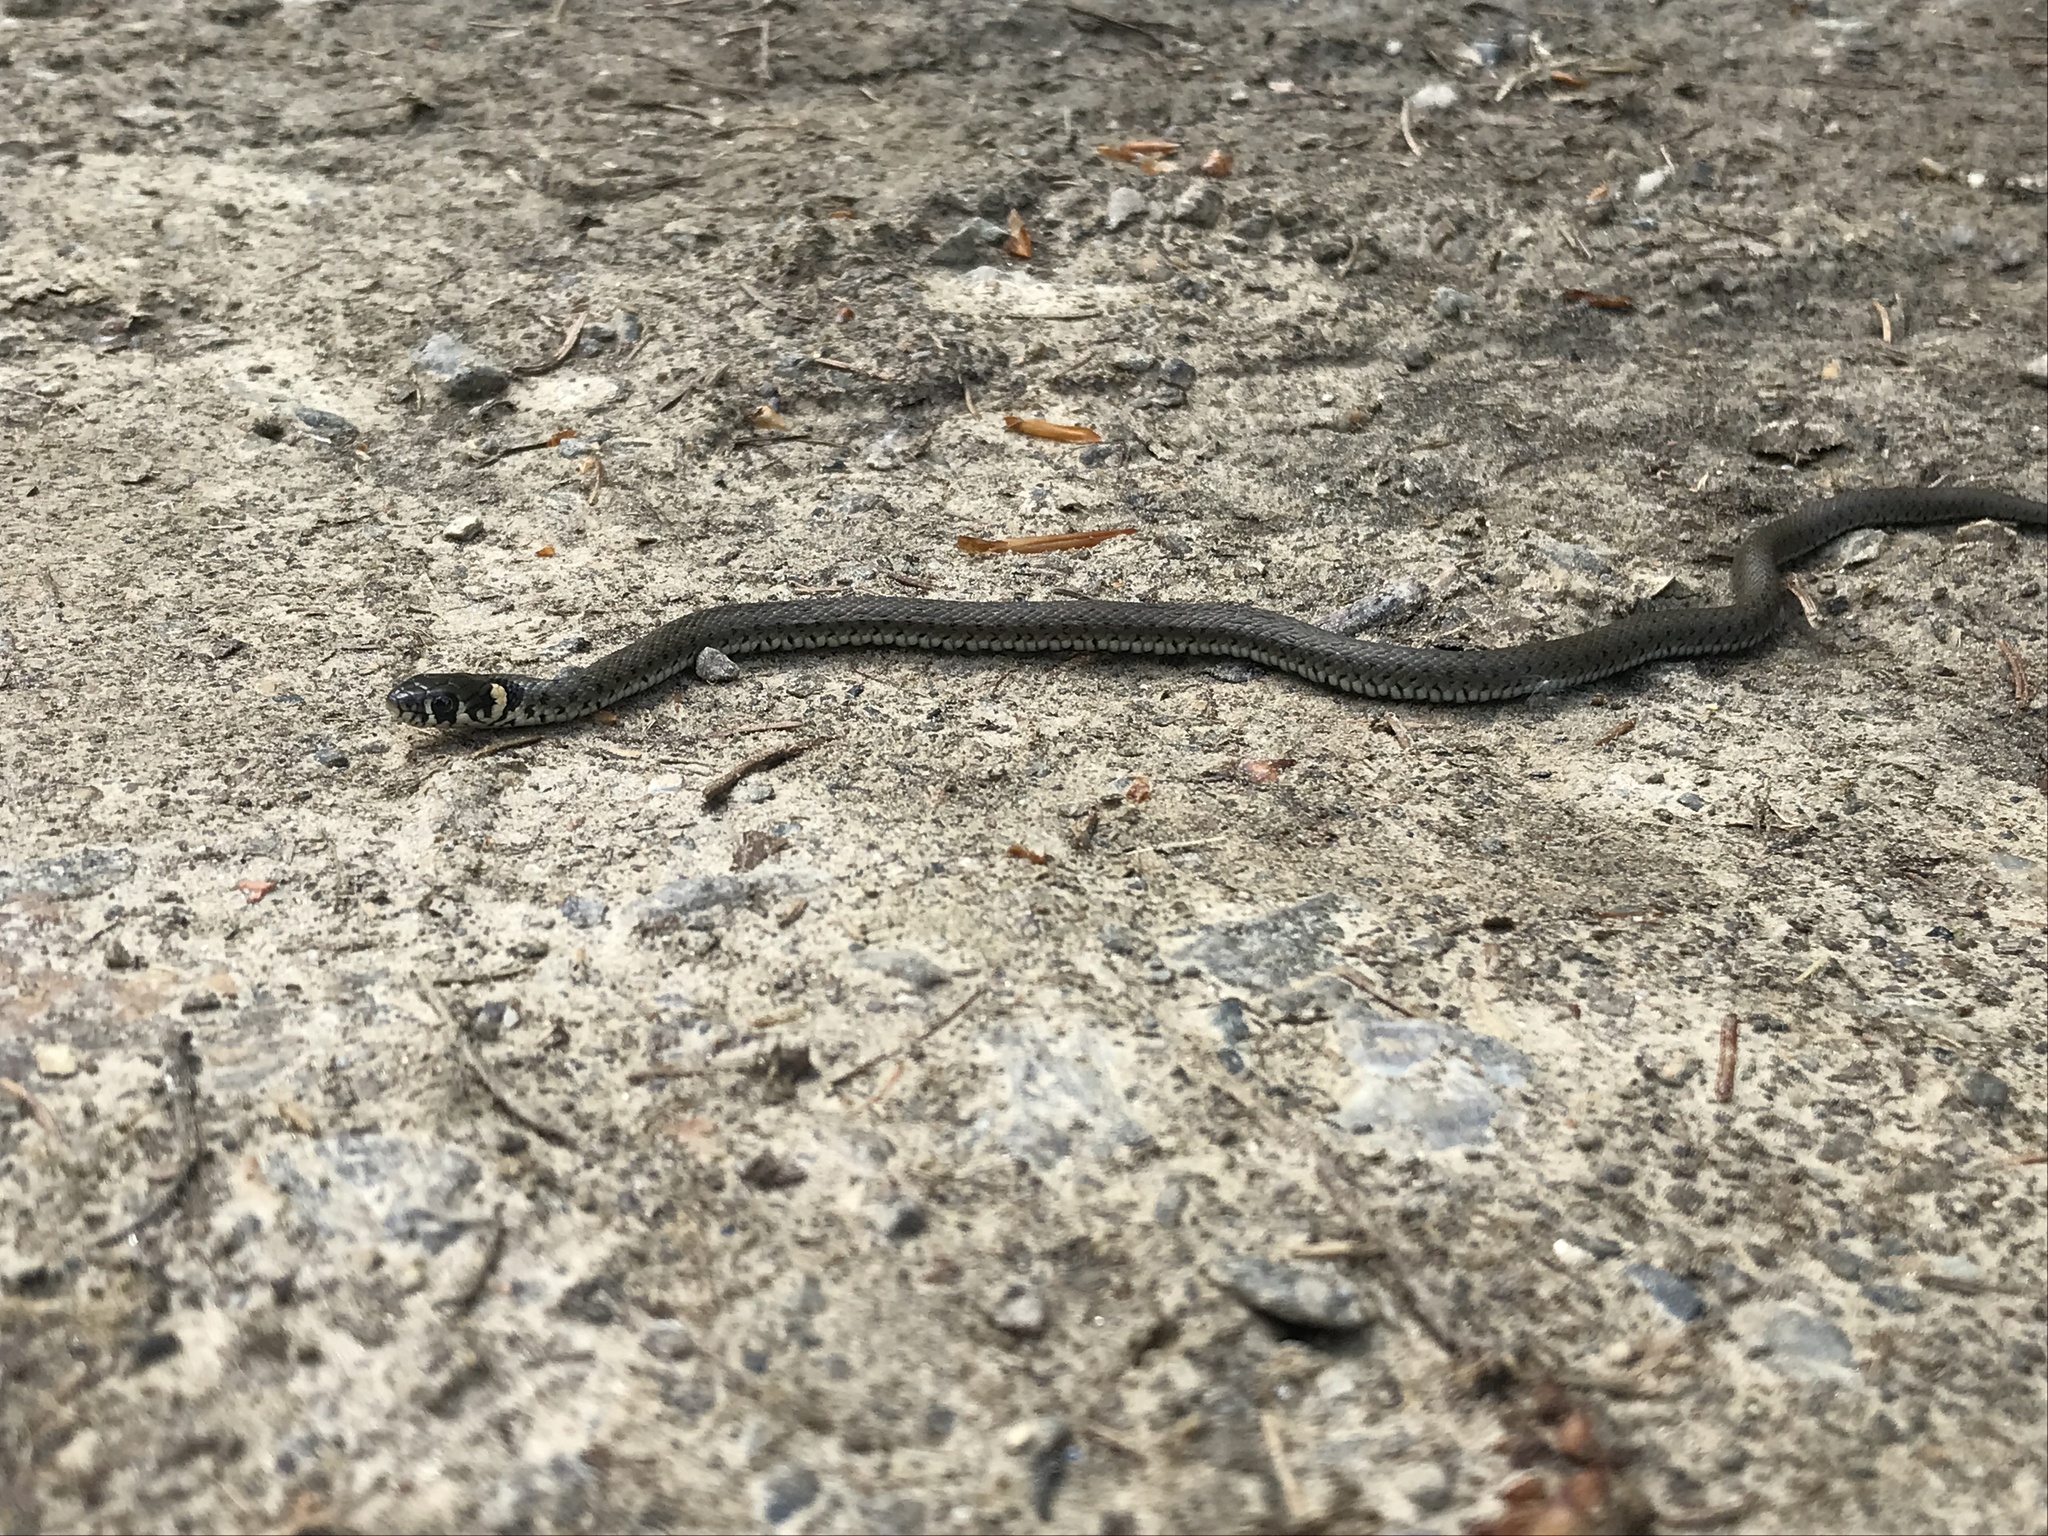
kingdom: Animalia
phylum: Chordata
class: Squamata
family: Colubridae
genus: Natrix
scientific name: Natrix natrix
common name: Grass snake
